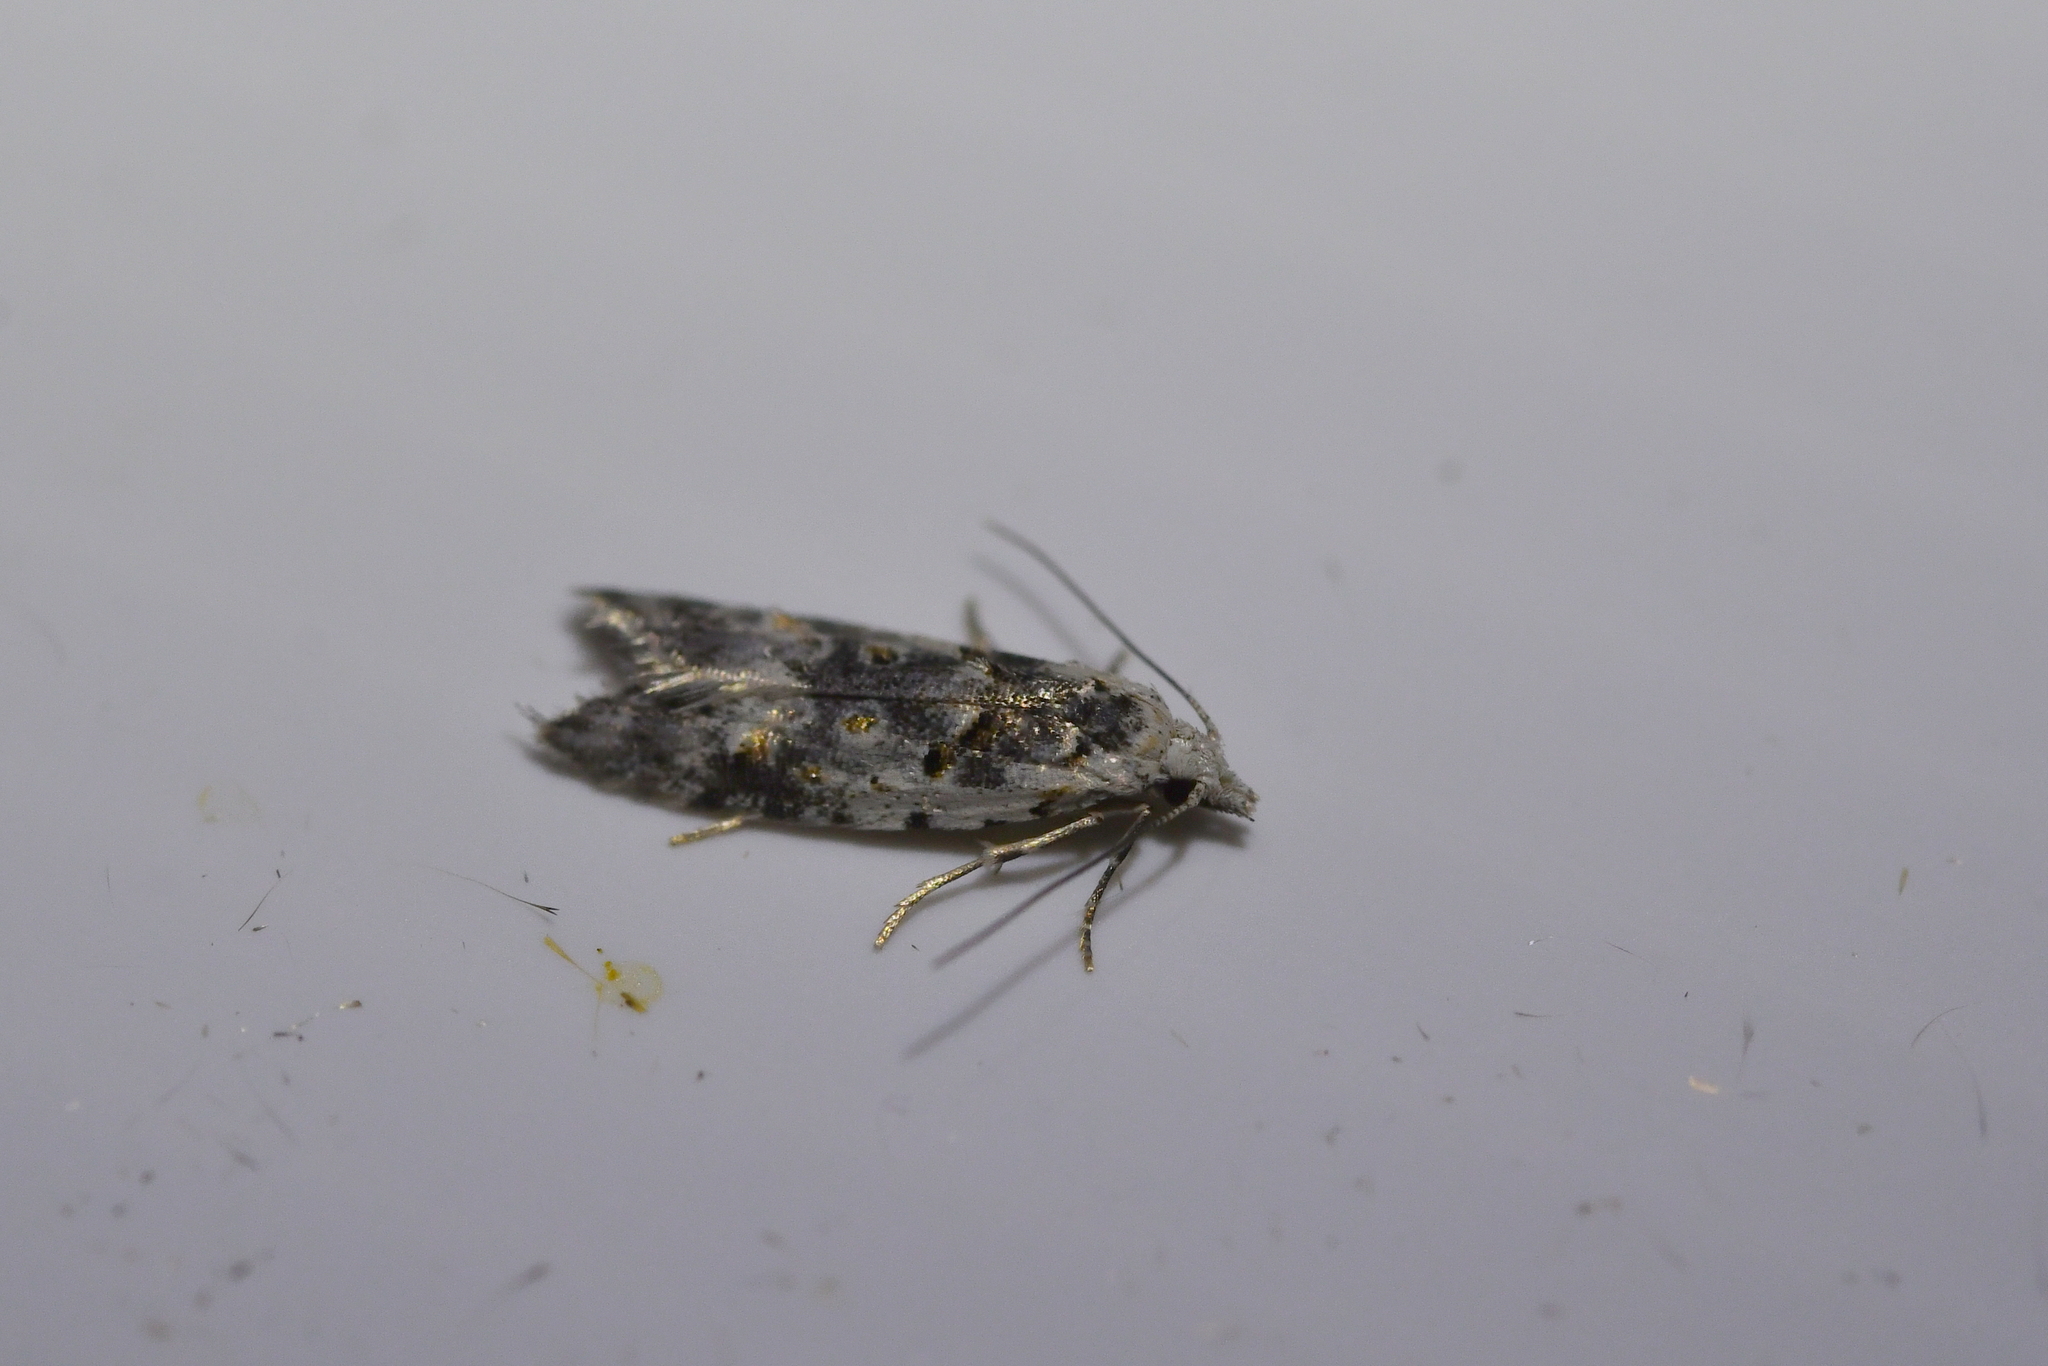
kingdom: Animalia
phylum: Arthropoda
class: Insecta
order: Lepidoptera
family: Carposinidae
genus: Carposina
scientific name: Carposina
